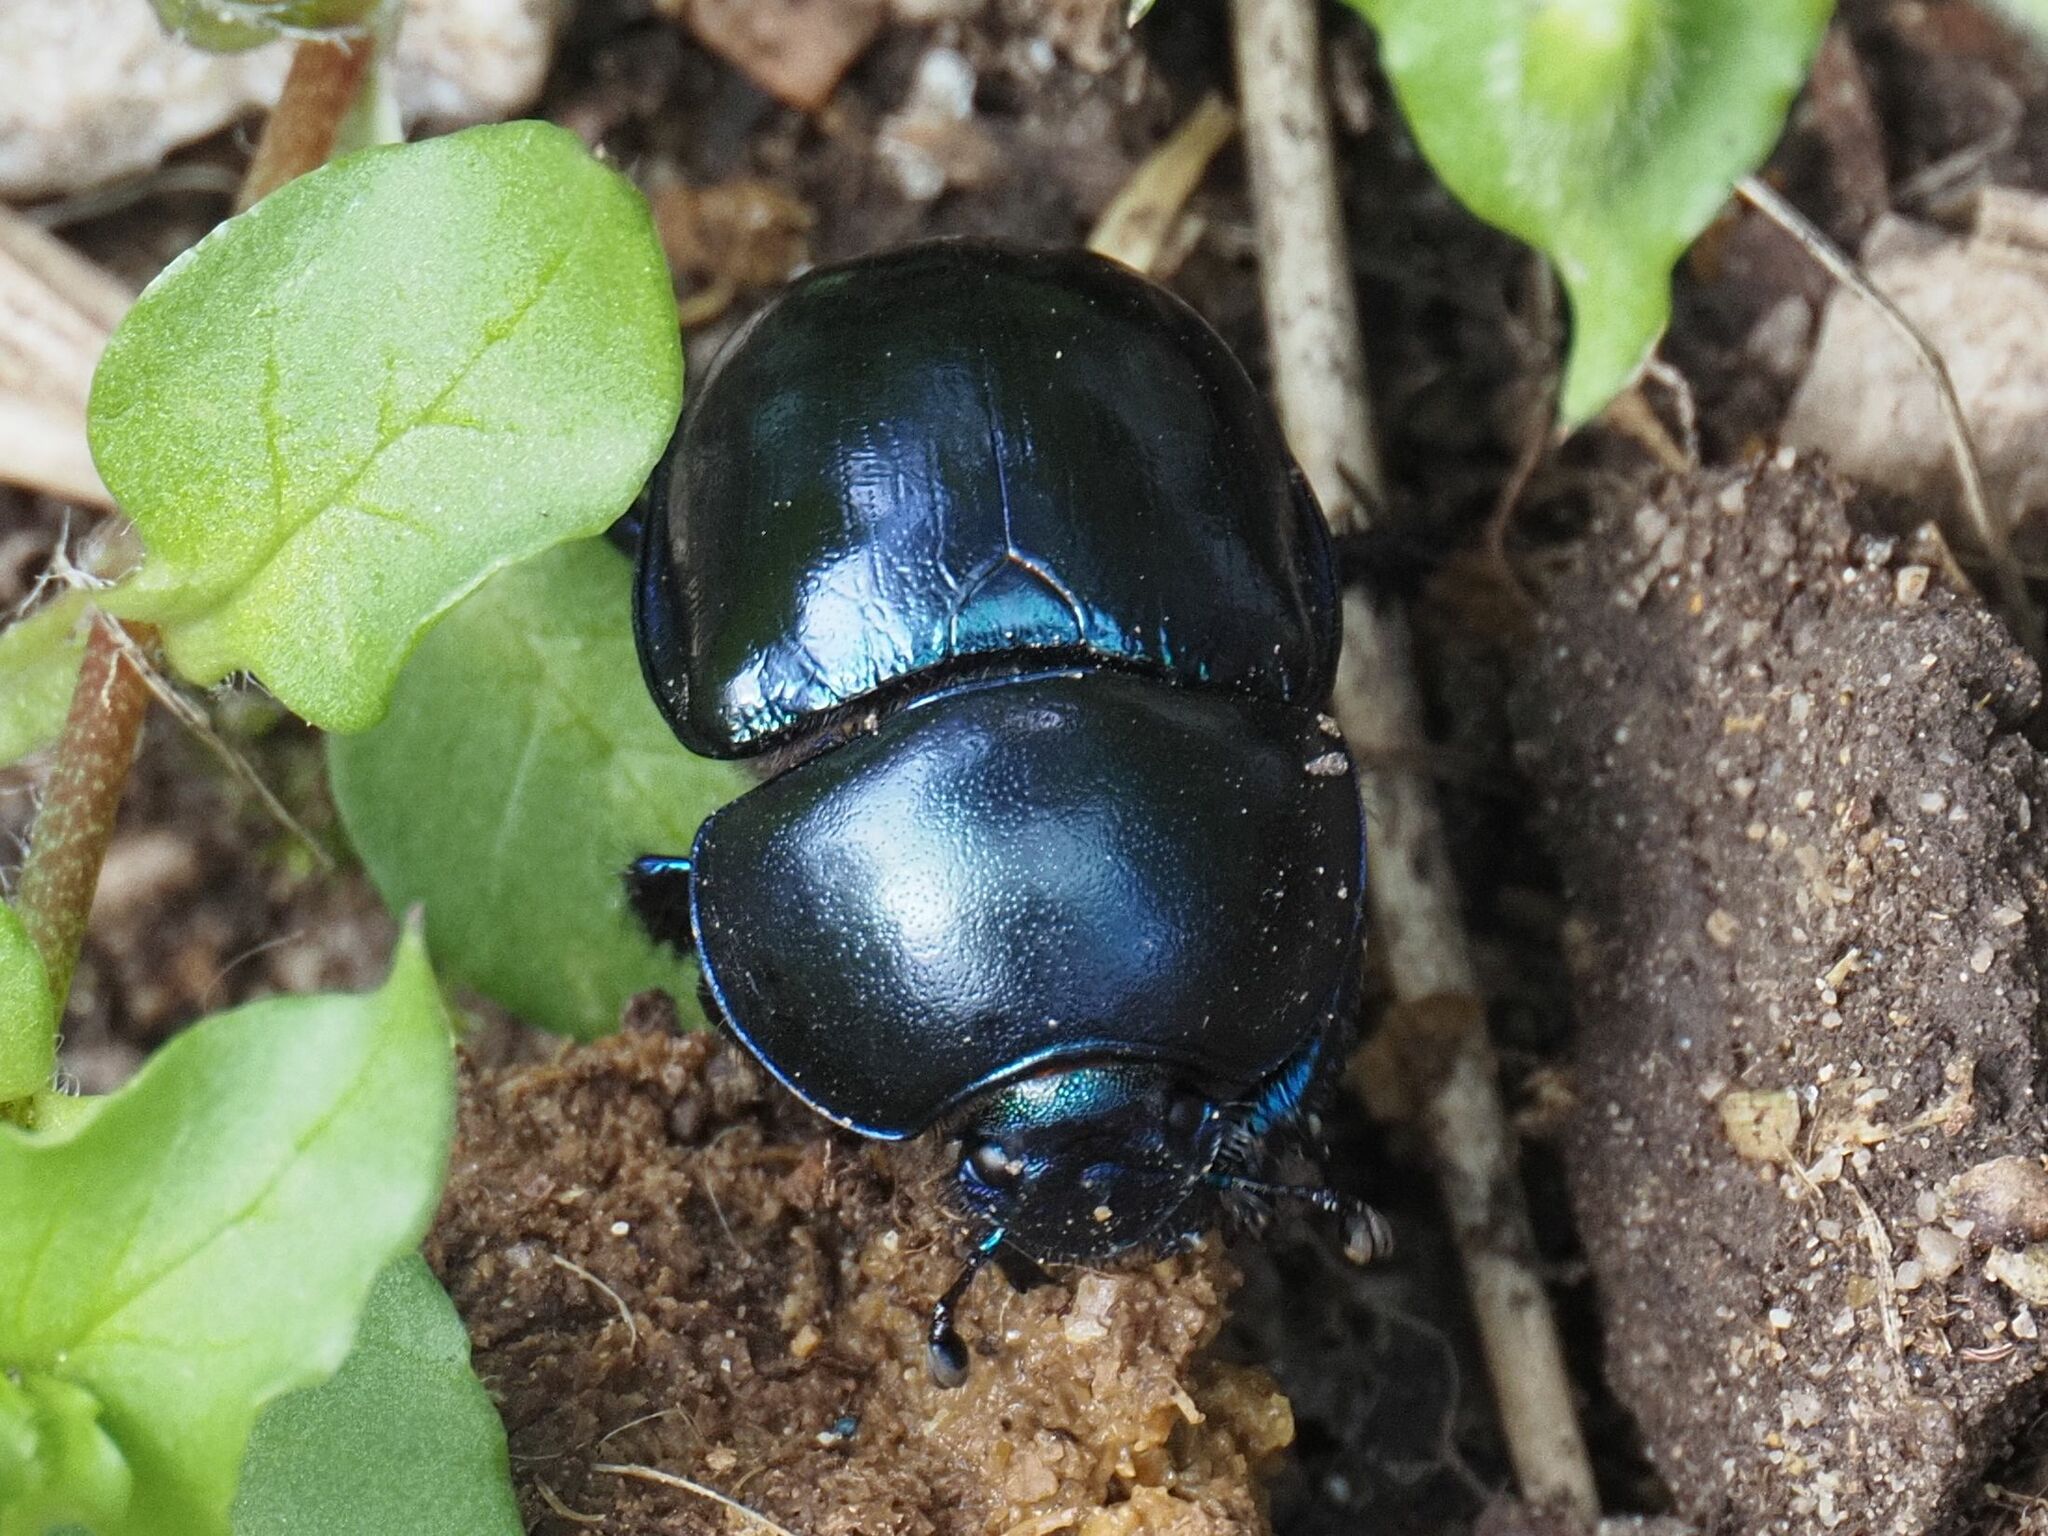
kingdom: Animalia
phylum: Arthropoda
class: Insecta
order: Coleoptera
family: Geotrupidae
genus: Trypocopris
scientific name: Trypocopris vernalis
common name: Spring dumbledor
